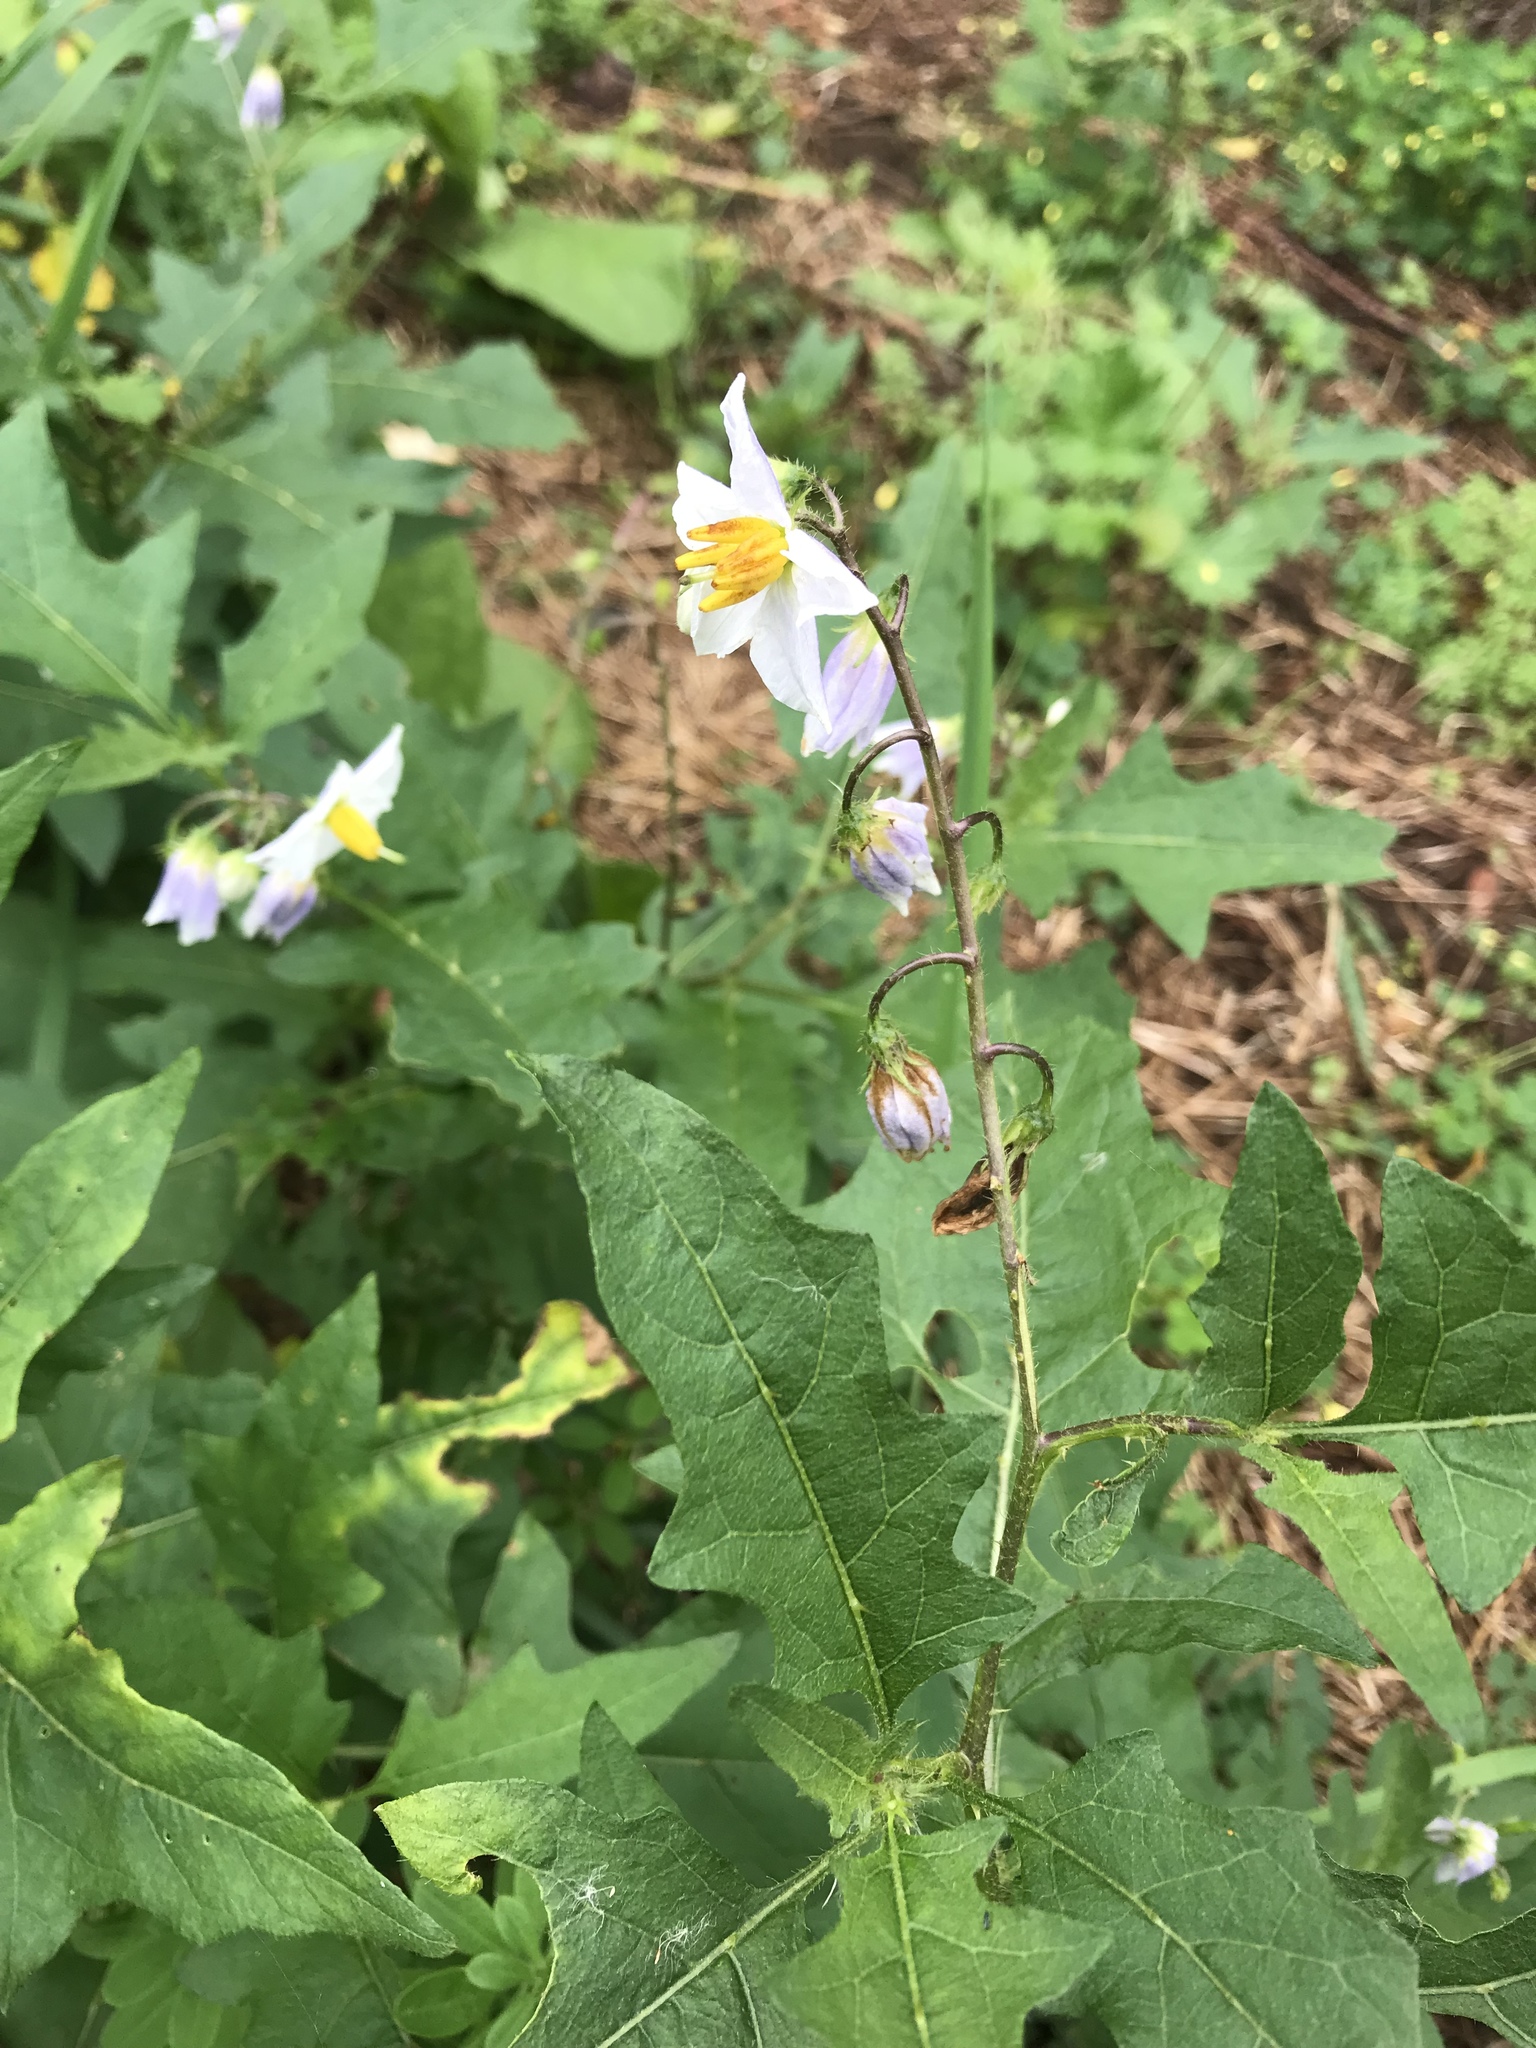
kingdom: Plantae
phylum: Tracheophyta
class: Magnoliopsida
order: Solanales
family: Solanaceae
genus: Solanum
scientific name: Solanum carolinense
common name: Horse-nettle
